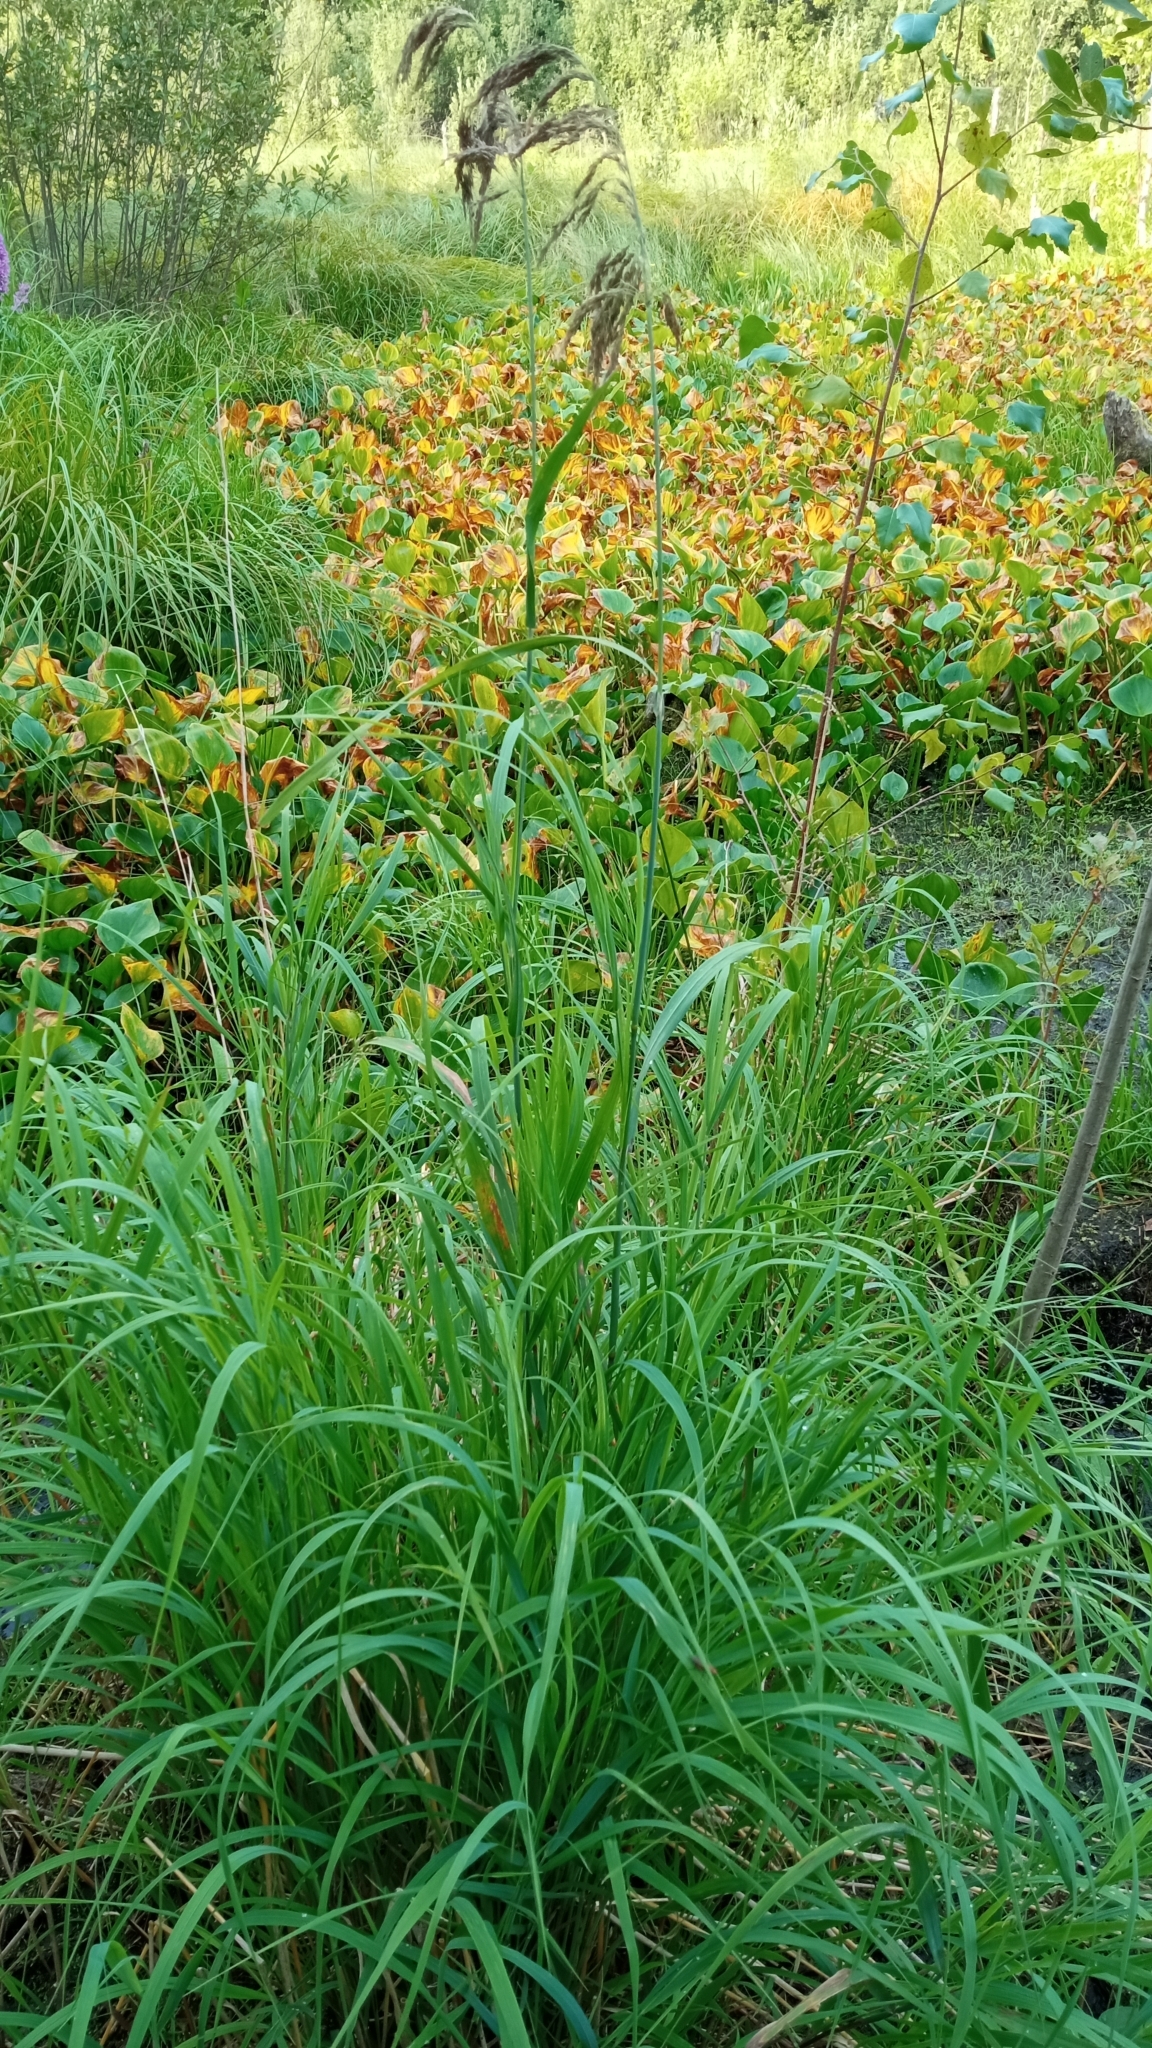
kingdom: Plantae
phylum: Tracheophyta
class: Liliopsida
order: Poales
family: Poaceae
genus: Calamagrostis
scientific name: Calamagrostis purpurea
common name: Scandinavian small-reed
